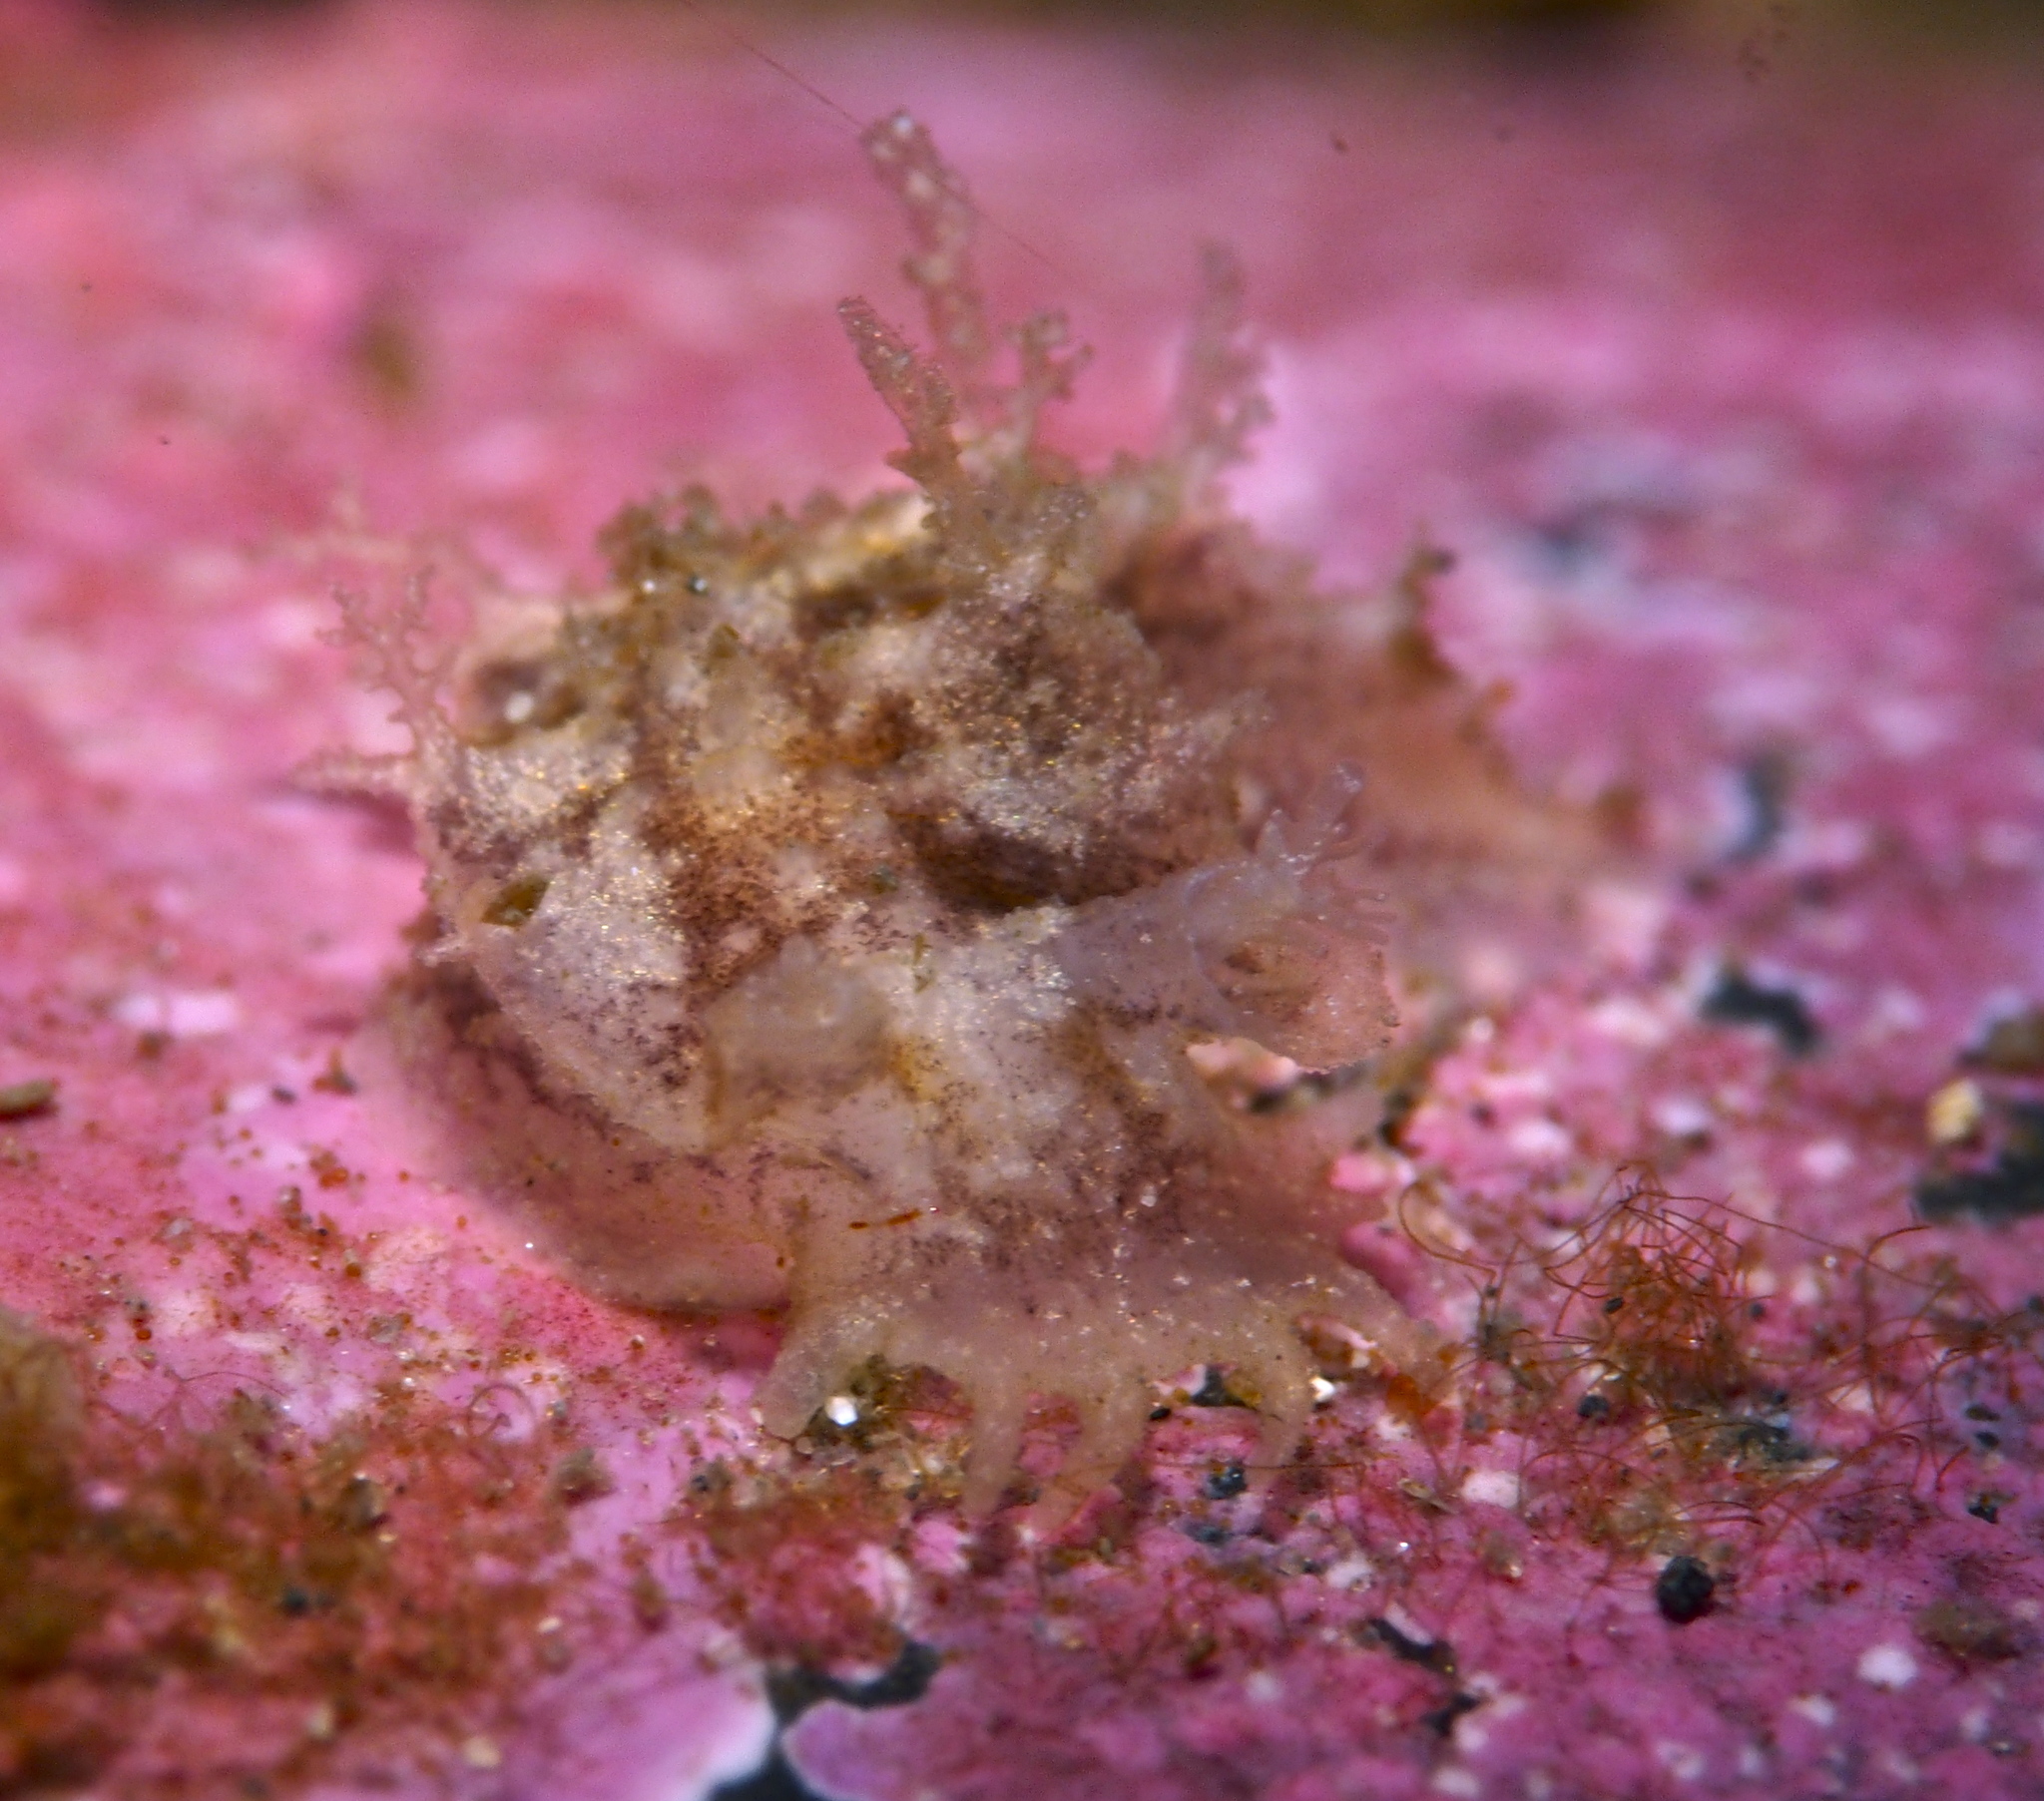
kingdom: Animalia
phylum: Mollusca
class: Gastropoda
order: Nudibranchia
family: Tritoniidae
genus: Duvaucelia
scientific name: Duvaucelia plebeia
